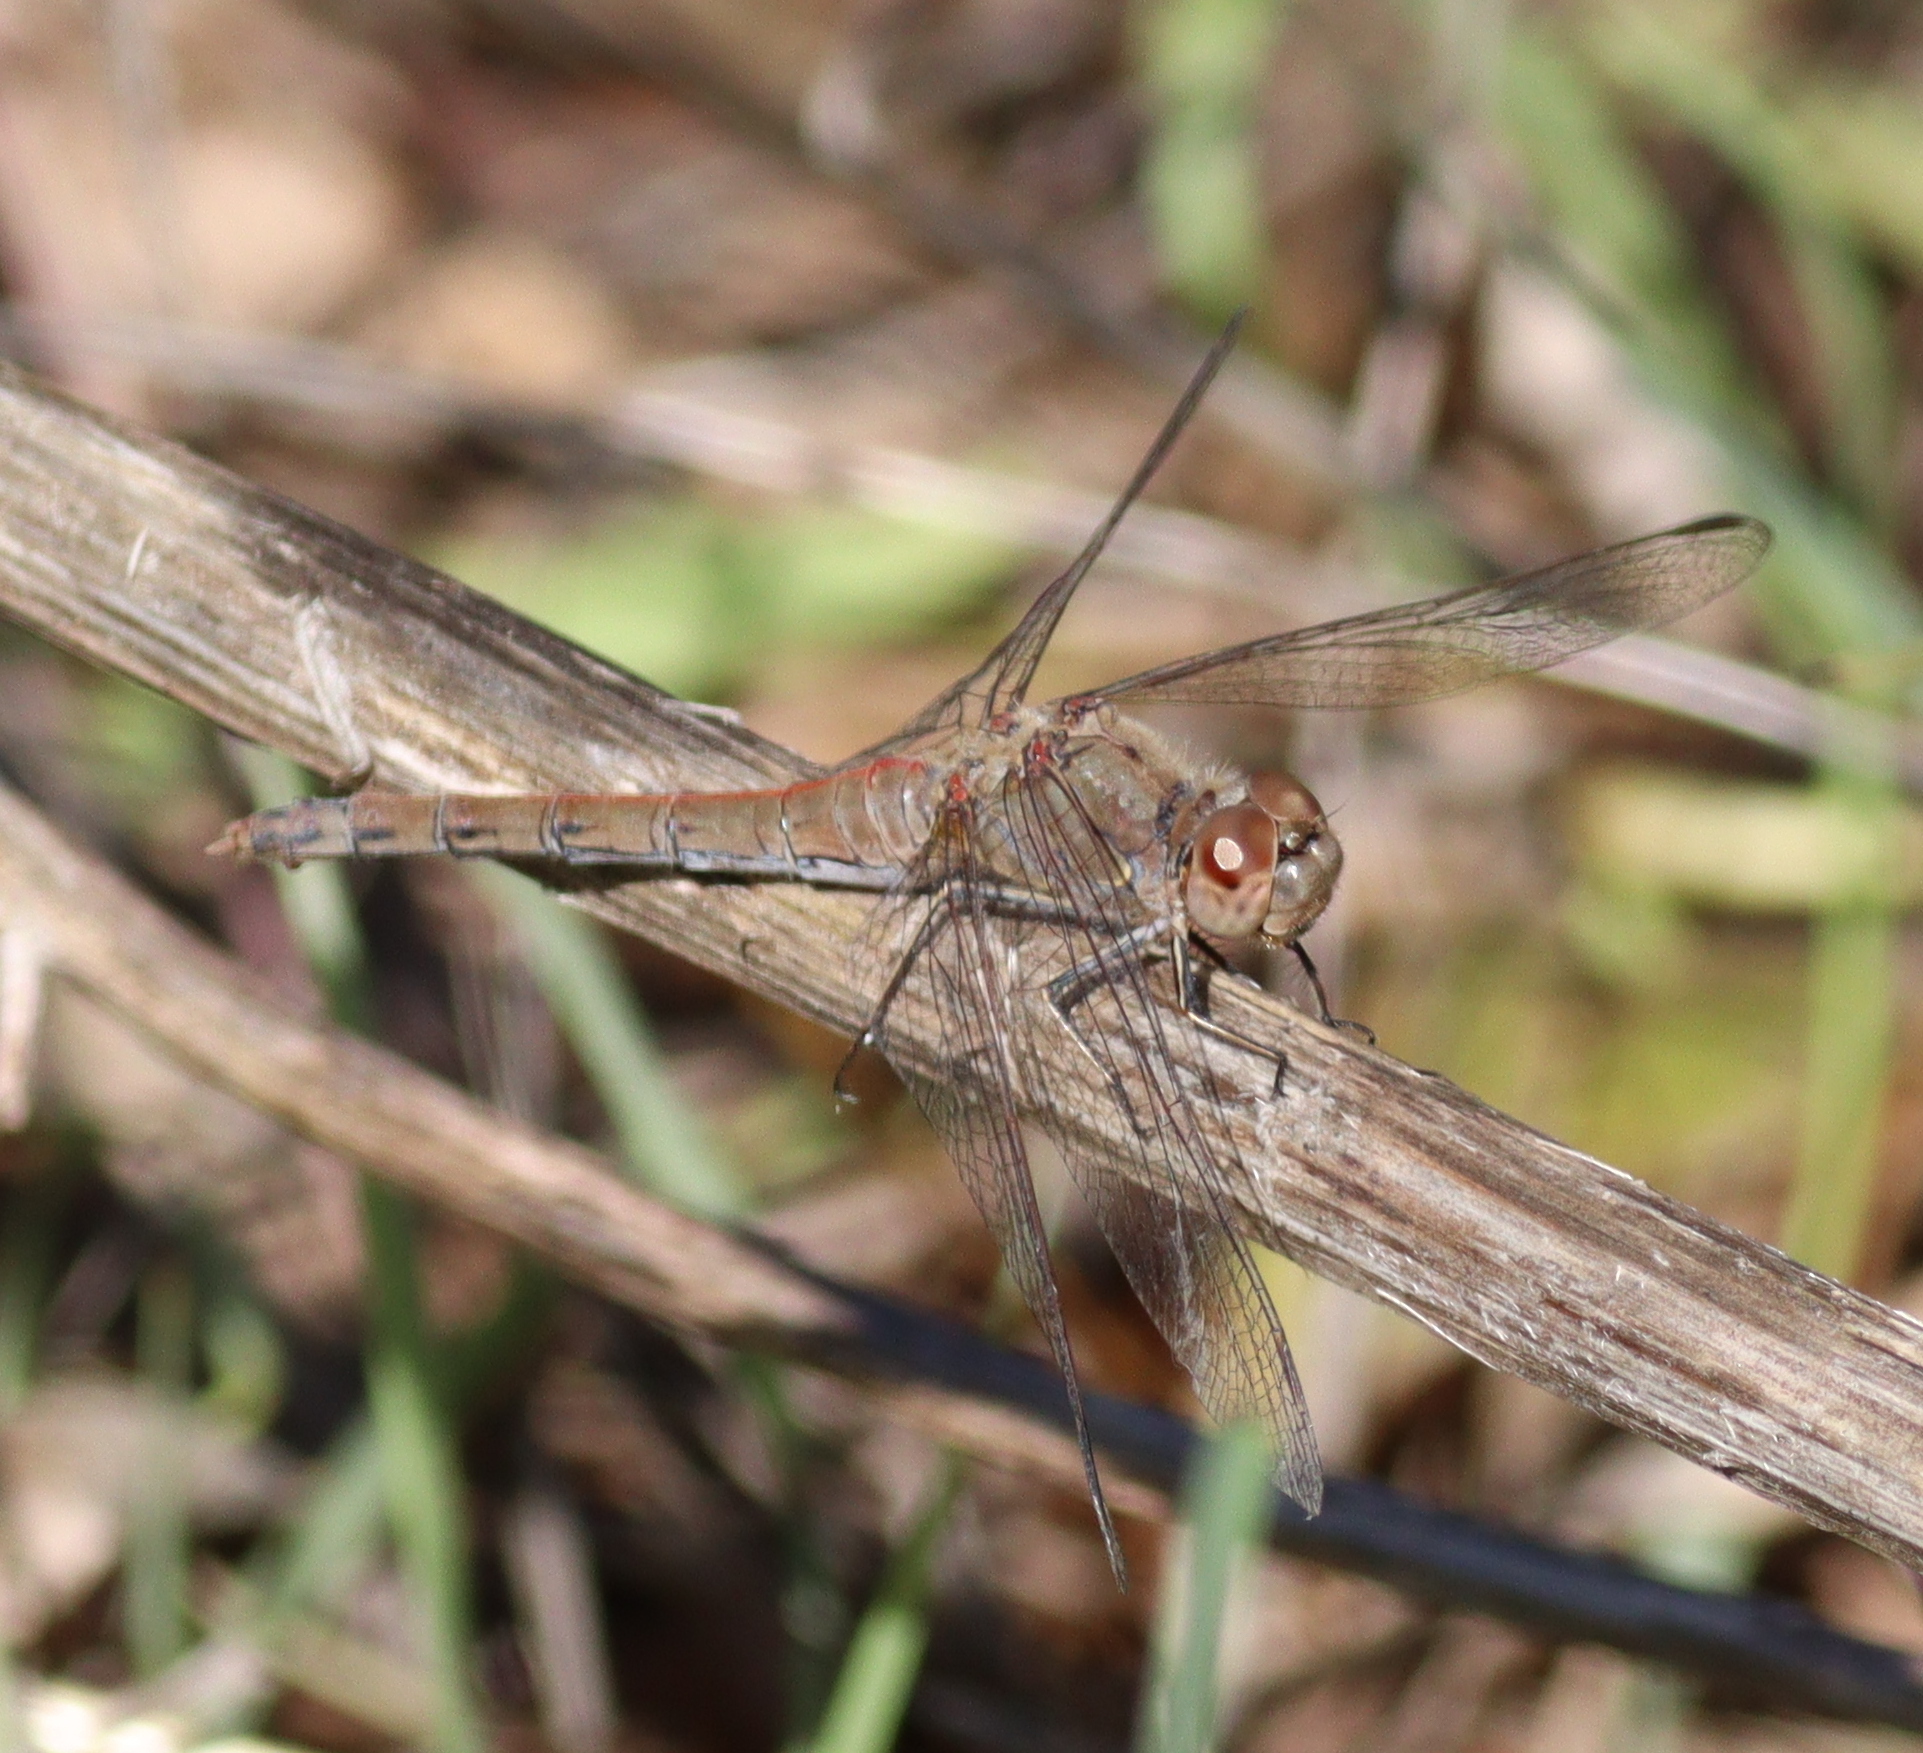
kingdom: Animalia
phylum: Arthropoda
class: Insecta
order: Odonata
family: Libellulidae
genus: Sympetrum
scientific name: Sympetrum striolatum
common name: Common darter
